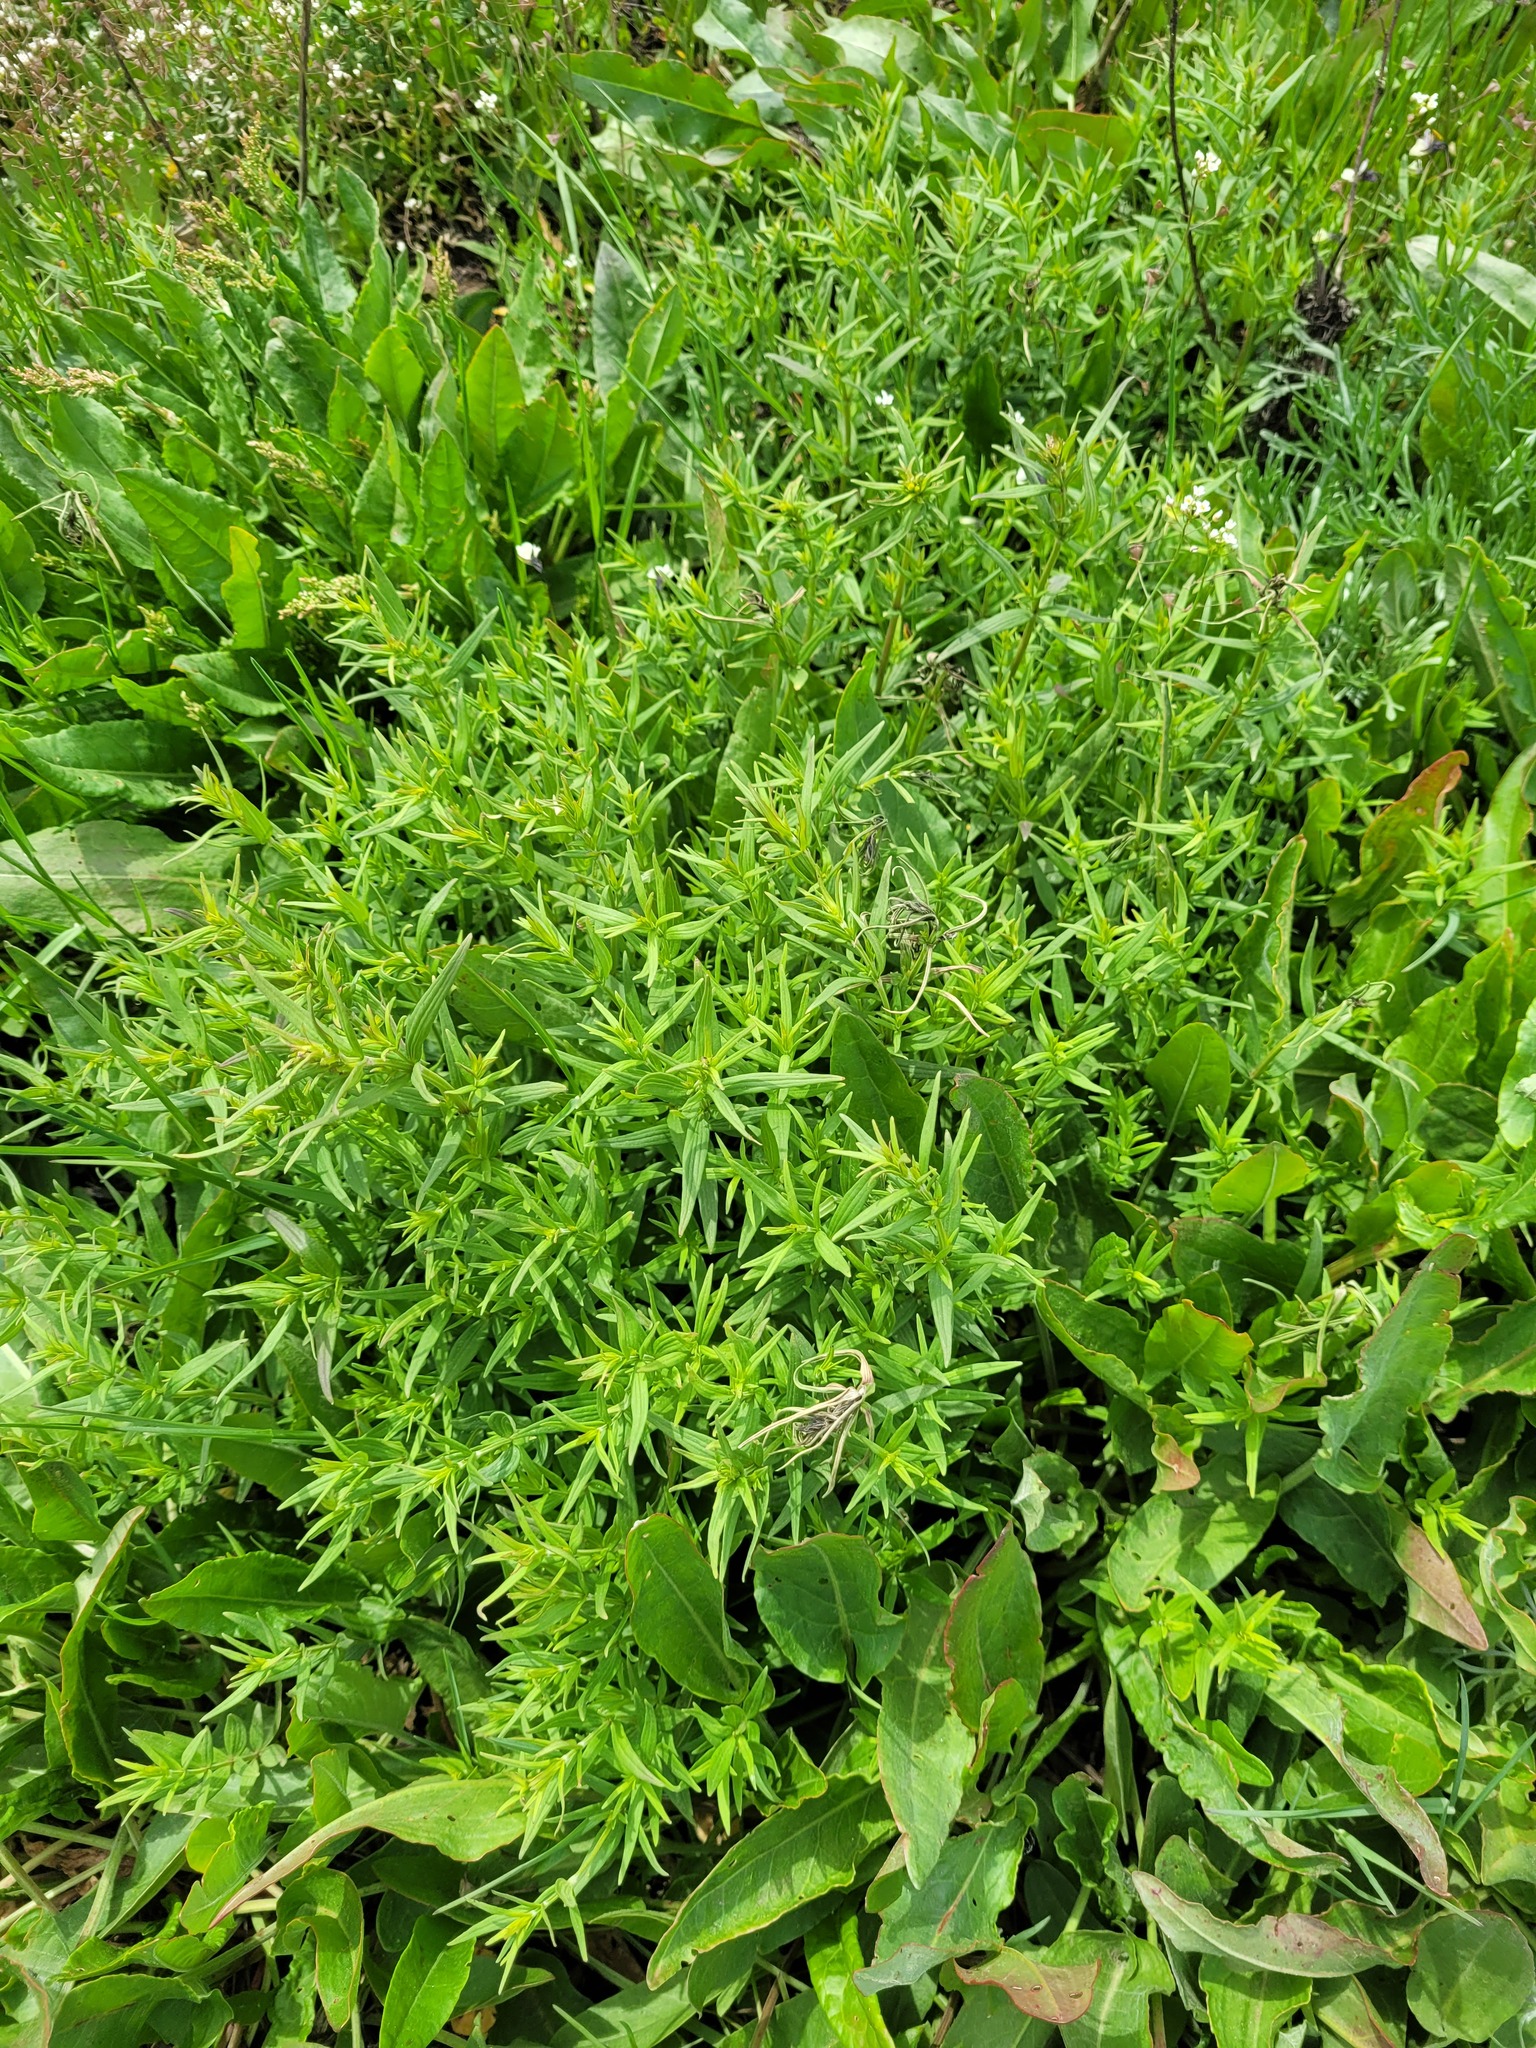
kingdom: Plantae
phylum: Tracheophyta
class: Magnoliopsida
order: Gentianales
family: Rubiaceae
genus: Galium
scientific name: Galium boreale
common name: Northern bedstraw
